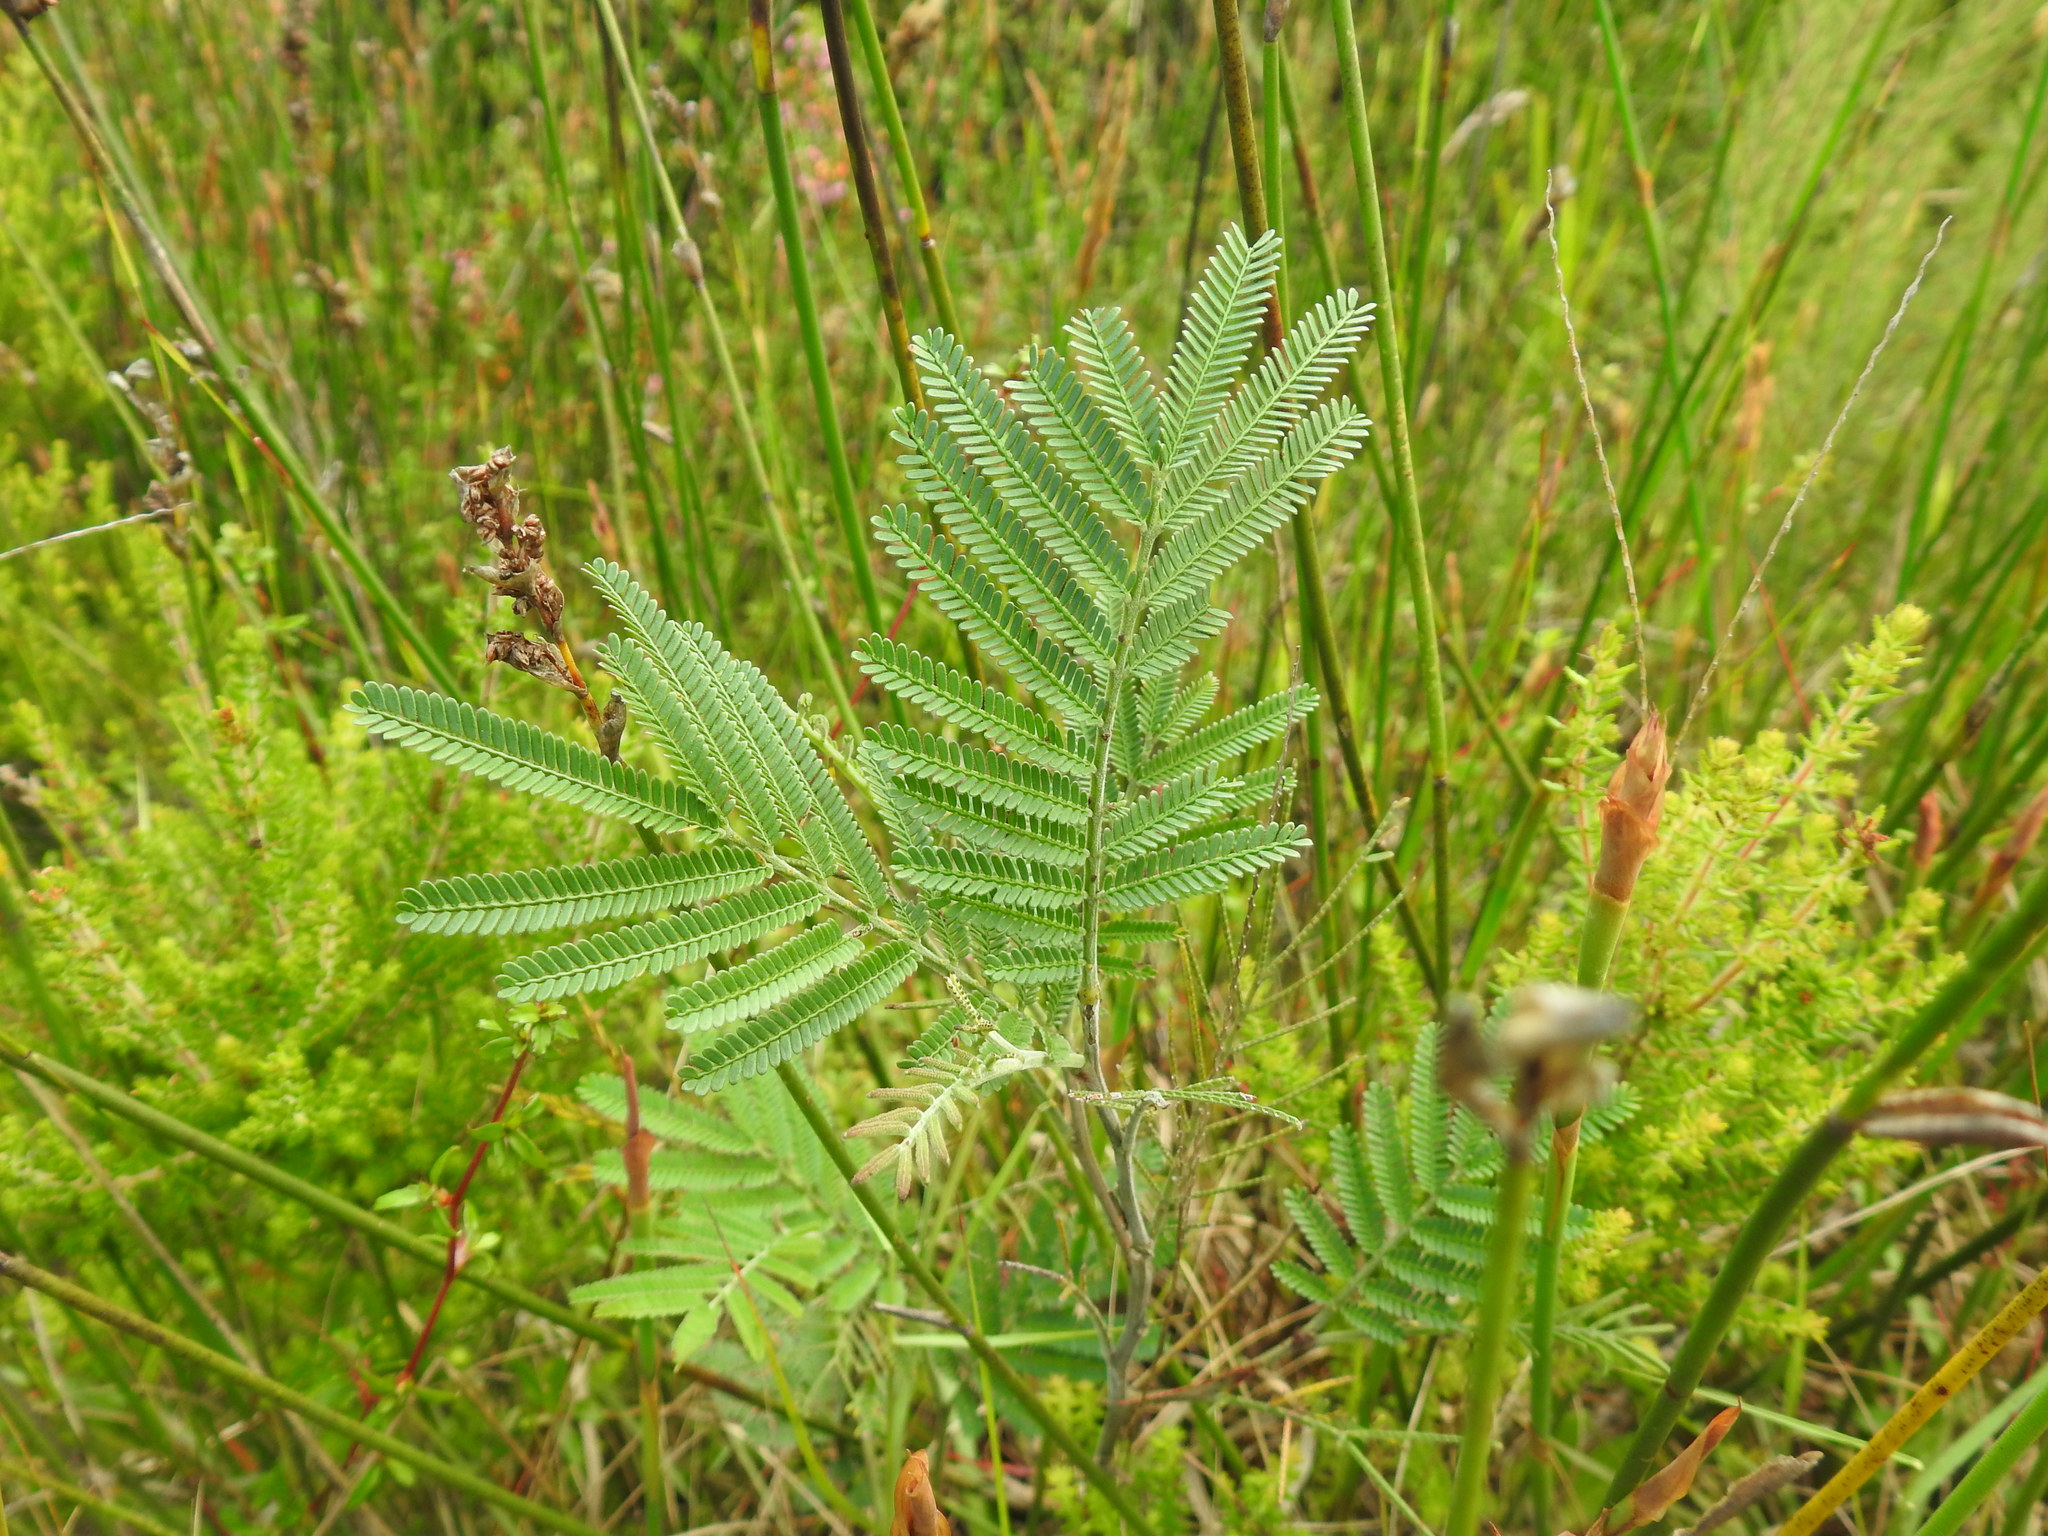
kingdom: Plantae
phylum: Tracheophyta
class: Magnoliopsida
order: Fabales
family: Fabaceae
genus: Acacia
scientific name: Acacia mearnsii
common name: Black wattle
